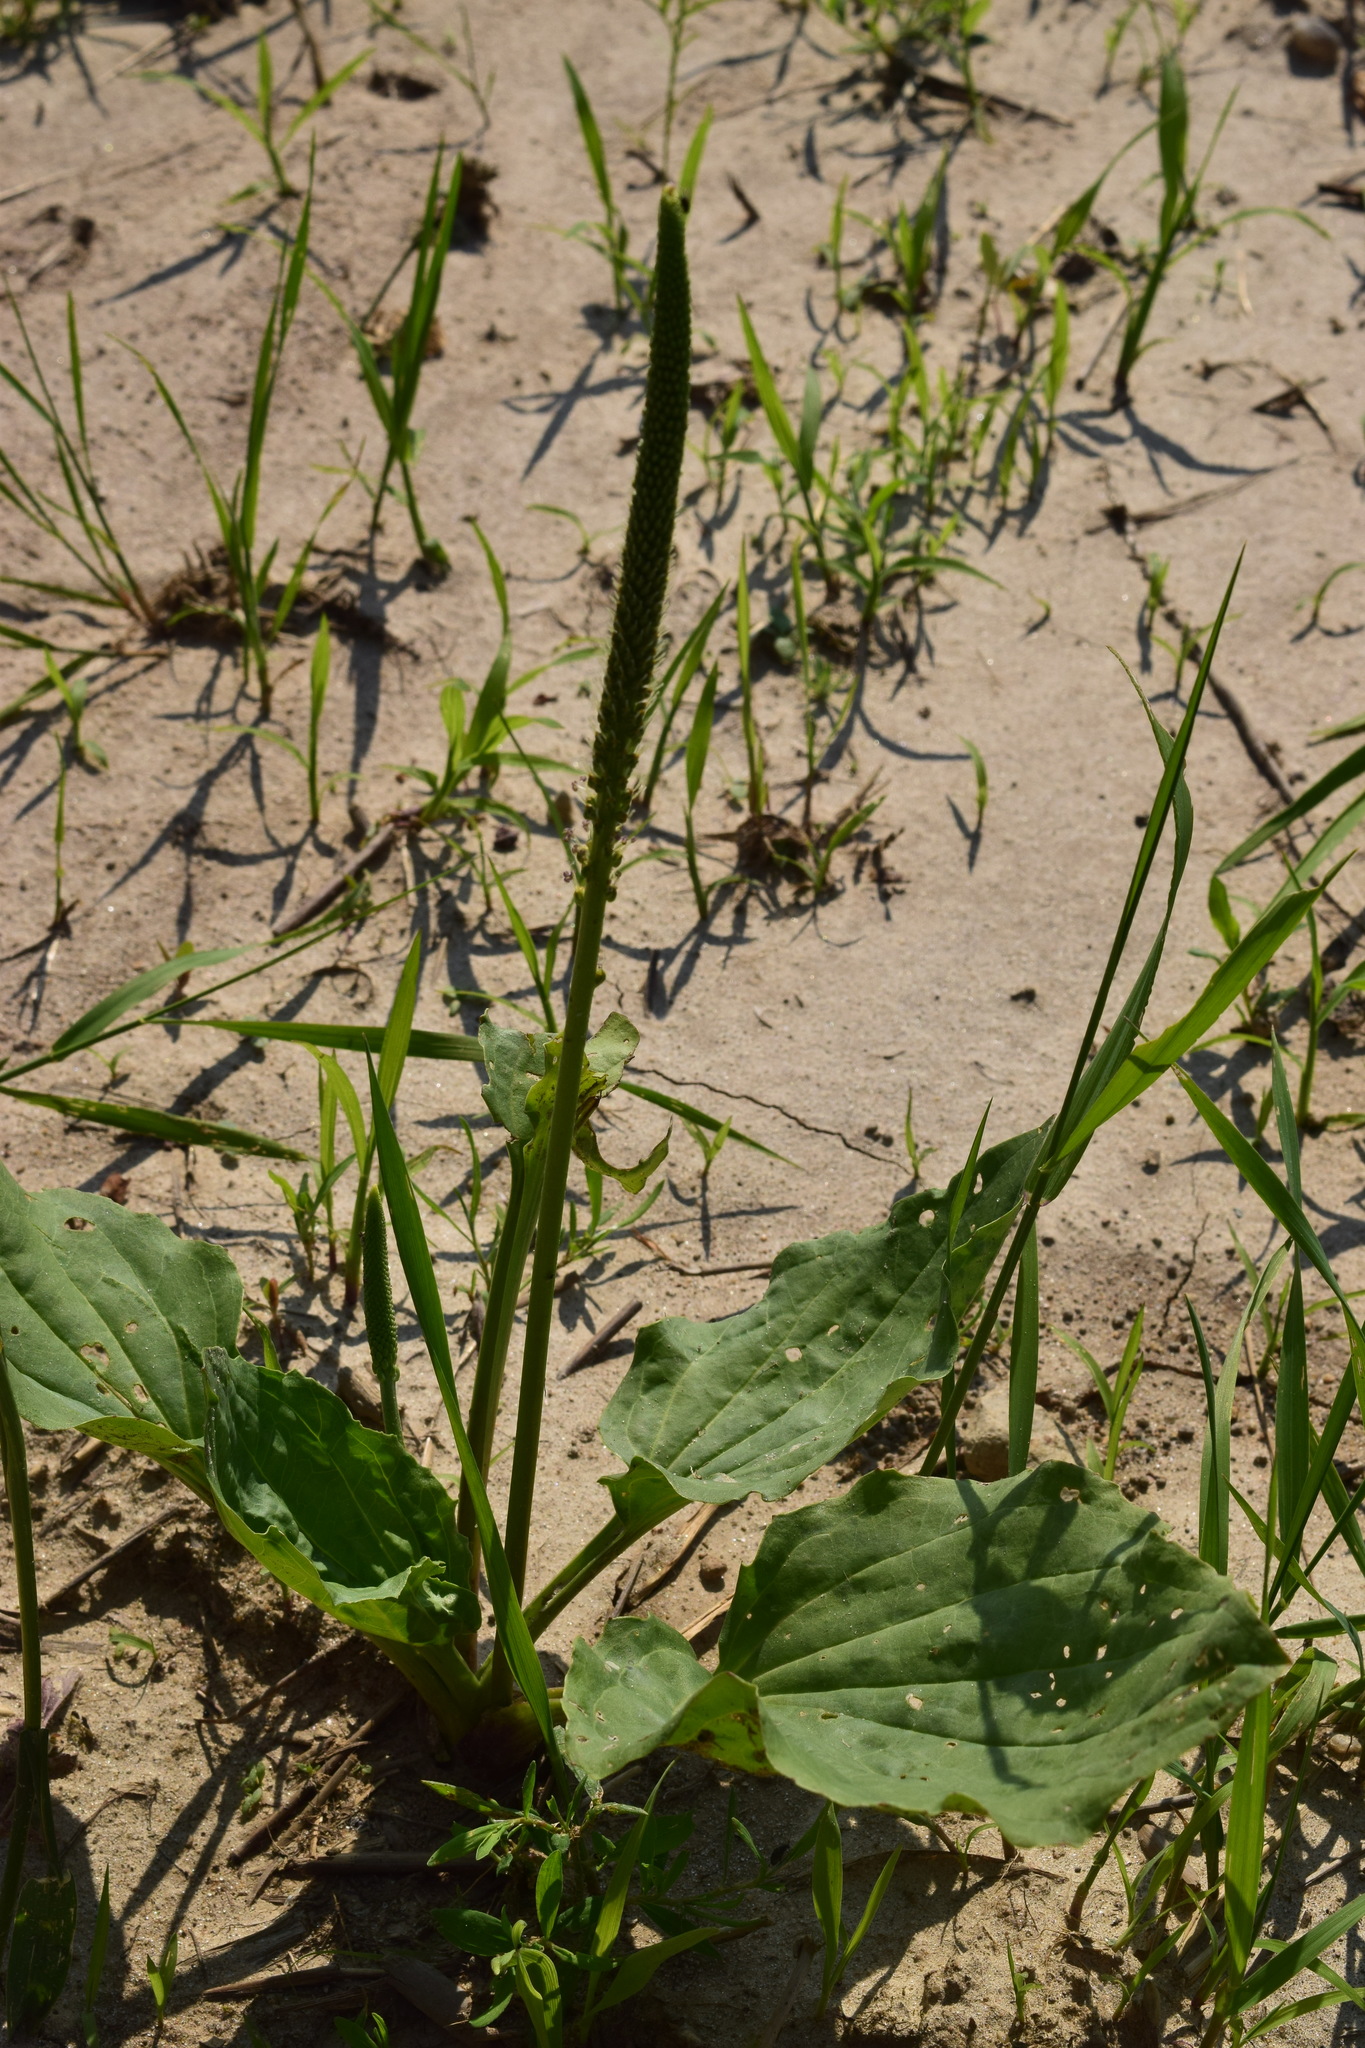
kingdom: Plantae
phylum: Tracheophyta
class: Magnoliopsida
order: Lamiales
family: Plantaginaceae
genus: Plantago
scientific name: Plantago major
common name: Common plantain
